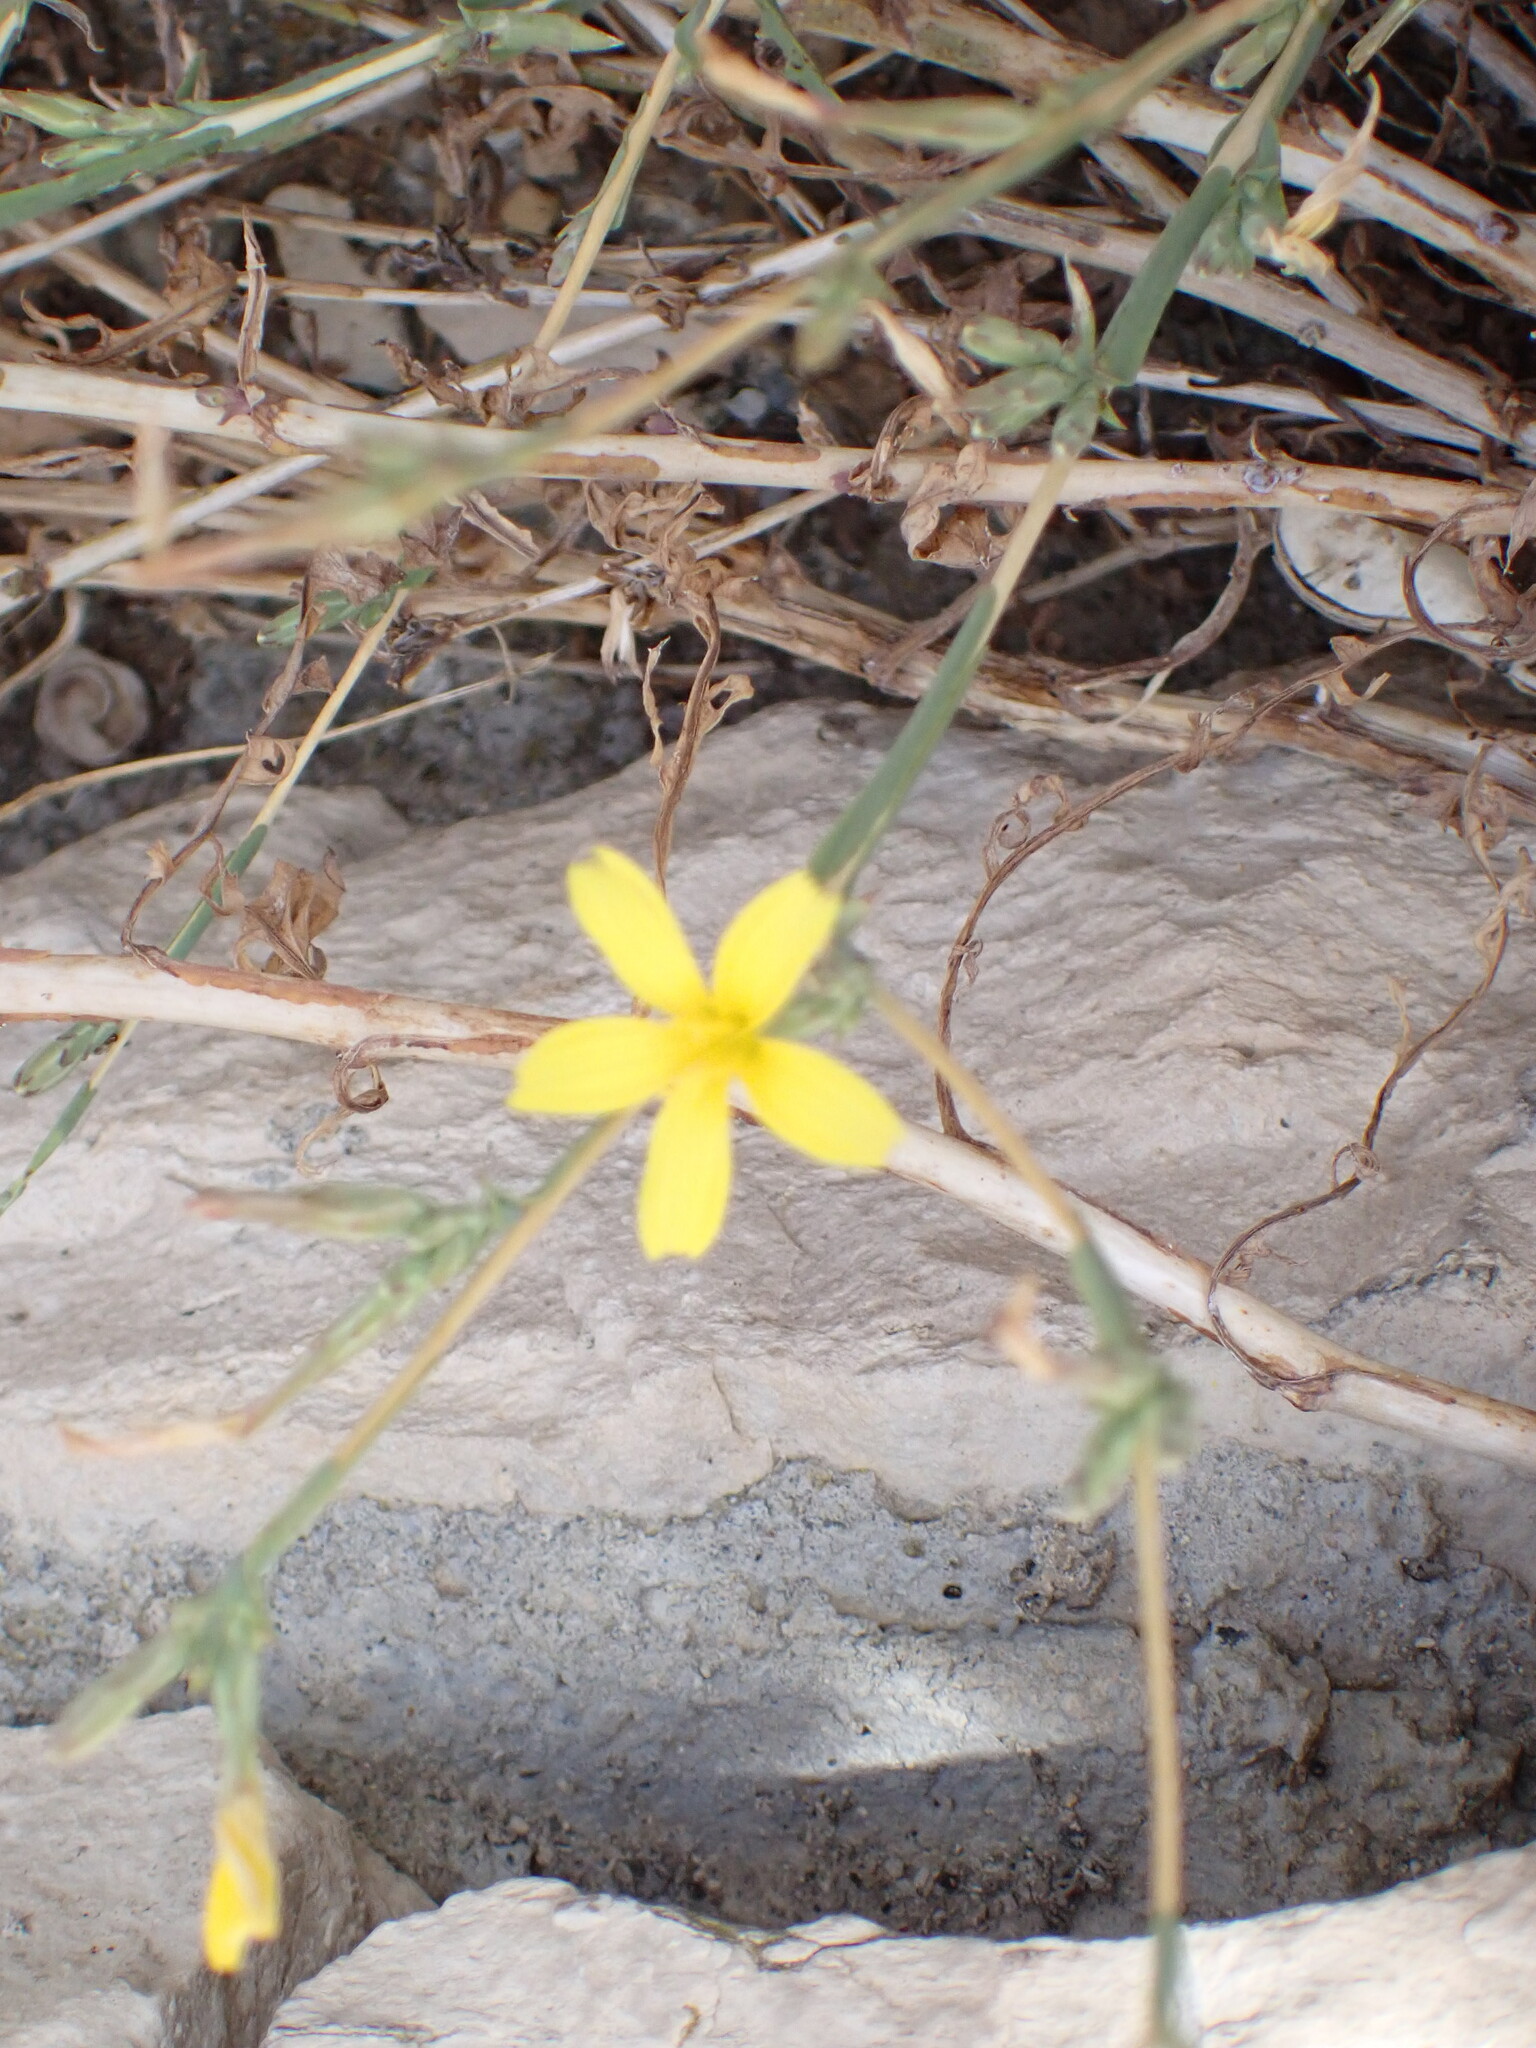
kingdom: Plantae
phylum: Tracheophyta
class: Magnoliopsida
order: Asterales
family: Asteraceae
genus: Lactuca
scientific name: Lactuca viminea
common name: Pliant lettuce
